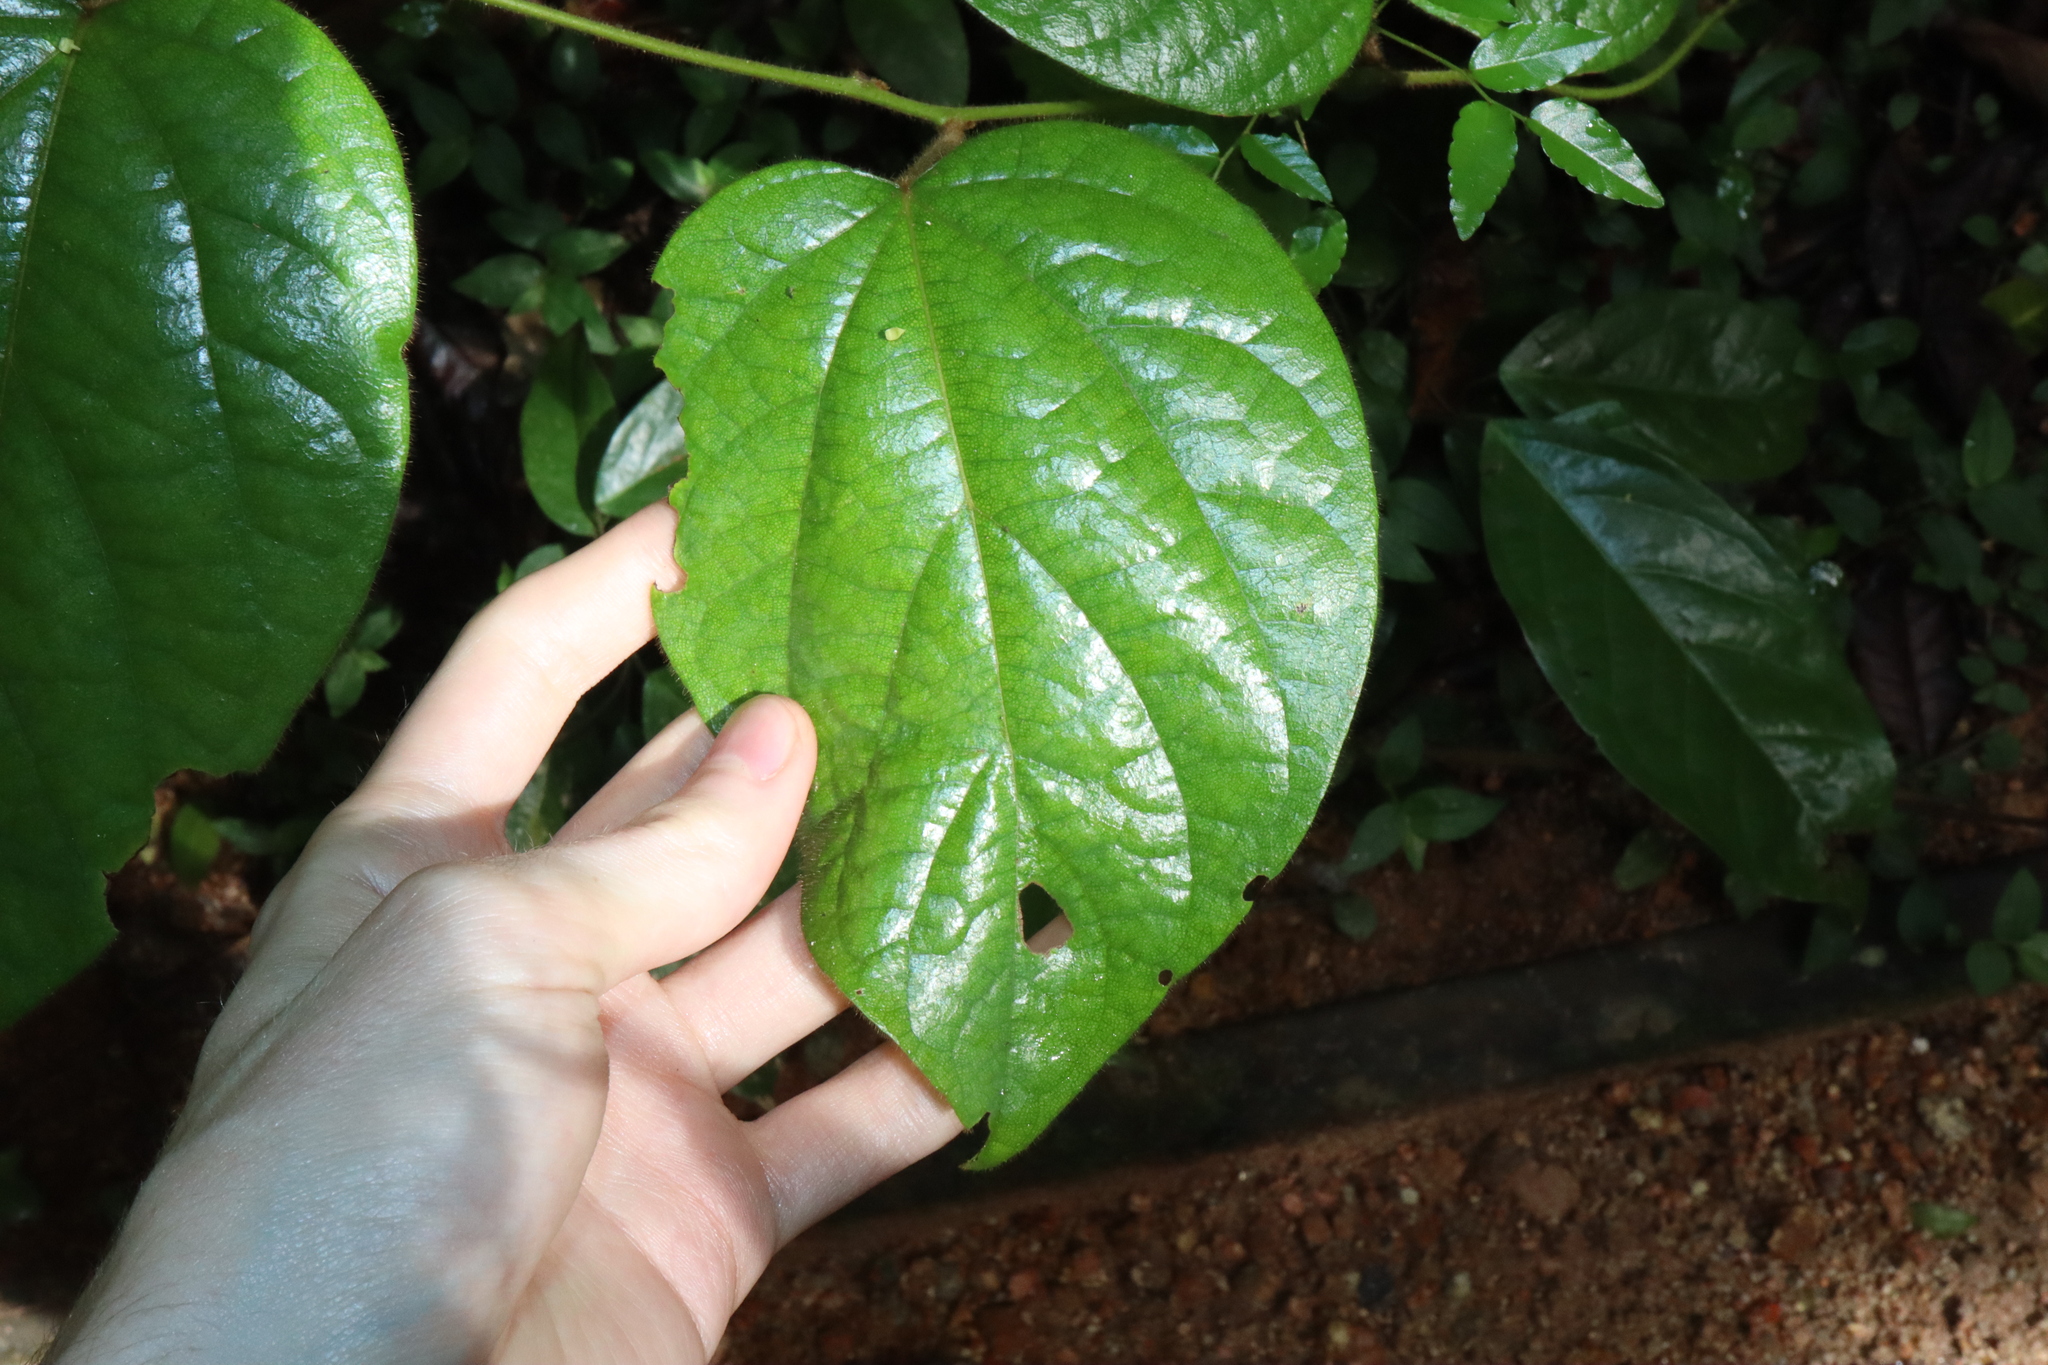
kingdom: Plantae
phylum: Tracheophyta
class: Magnoliopsida
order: Ranunculales
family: Menispermaceae
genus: Hypserpa
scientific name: Hypserpa decumbens
